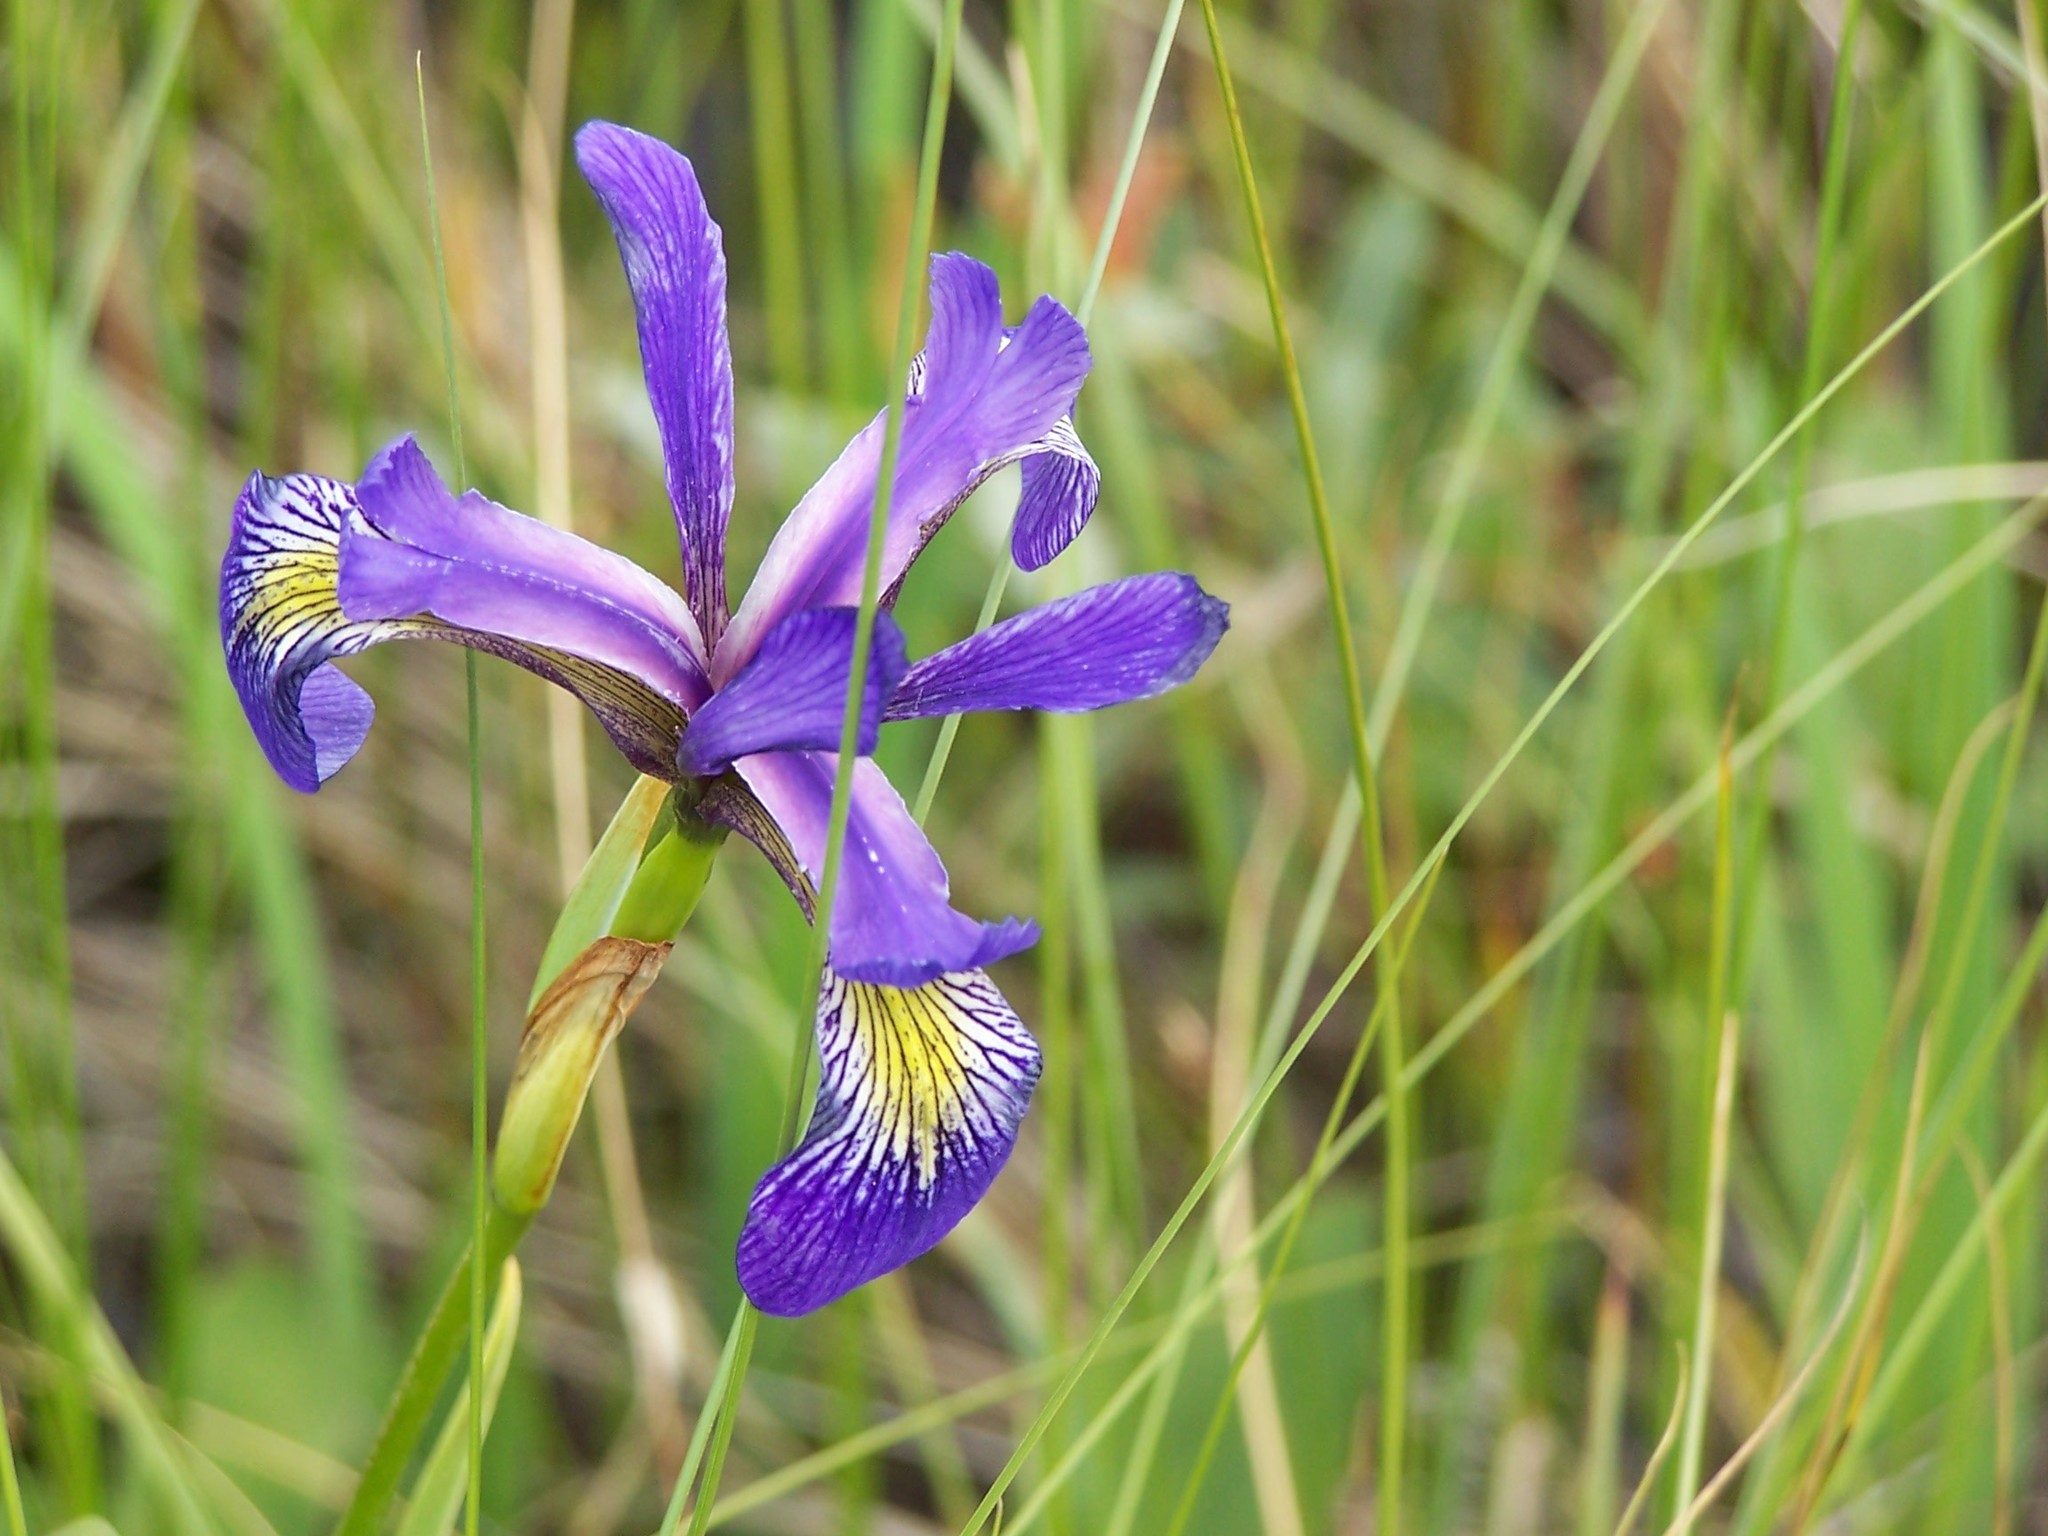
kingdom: Plantae
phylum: Tracheophyta
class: Liliopsida
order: Asparagales
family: Iridaceae
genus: Iris
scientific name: Iris versicolor
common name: Purple iris
